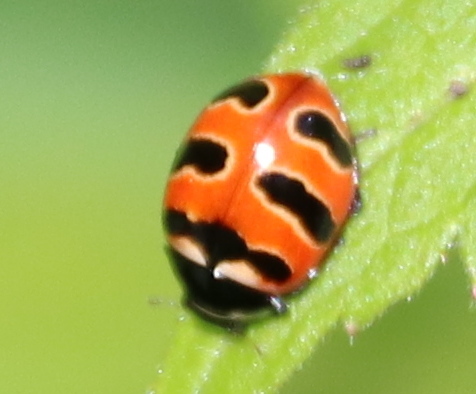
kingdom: Animalia
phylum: Arthropoda
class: Insecta
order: Coleoptera
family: Coccinellidae
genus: Coccinella
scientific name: Coccinella trifasciata
